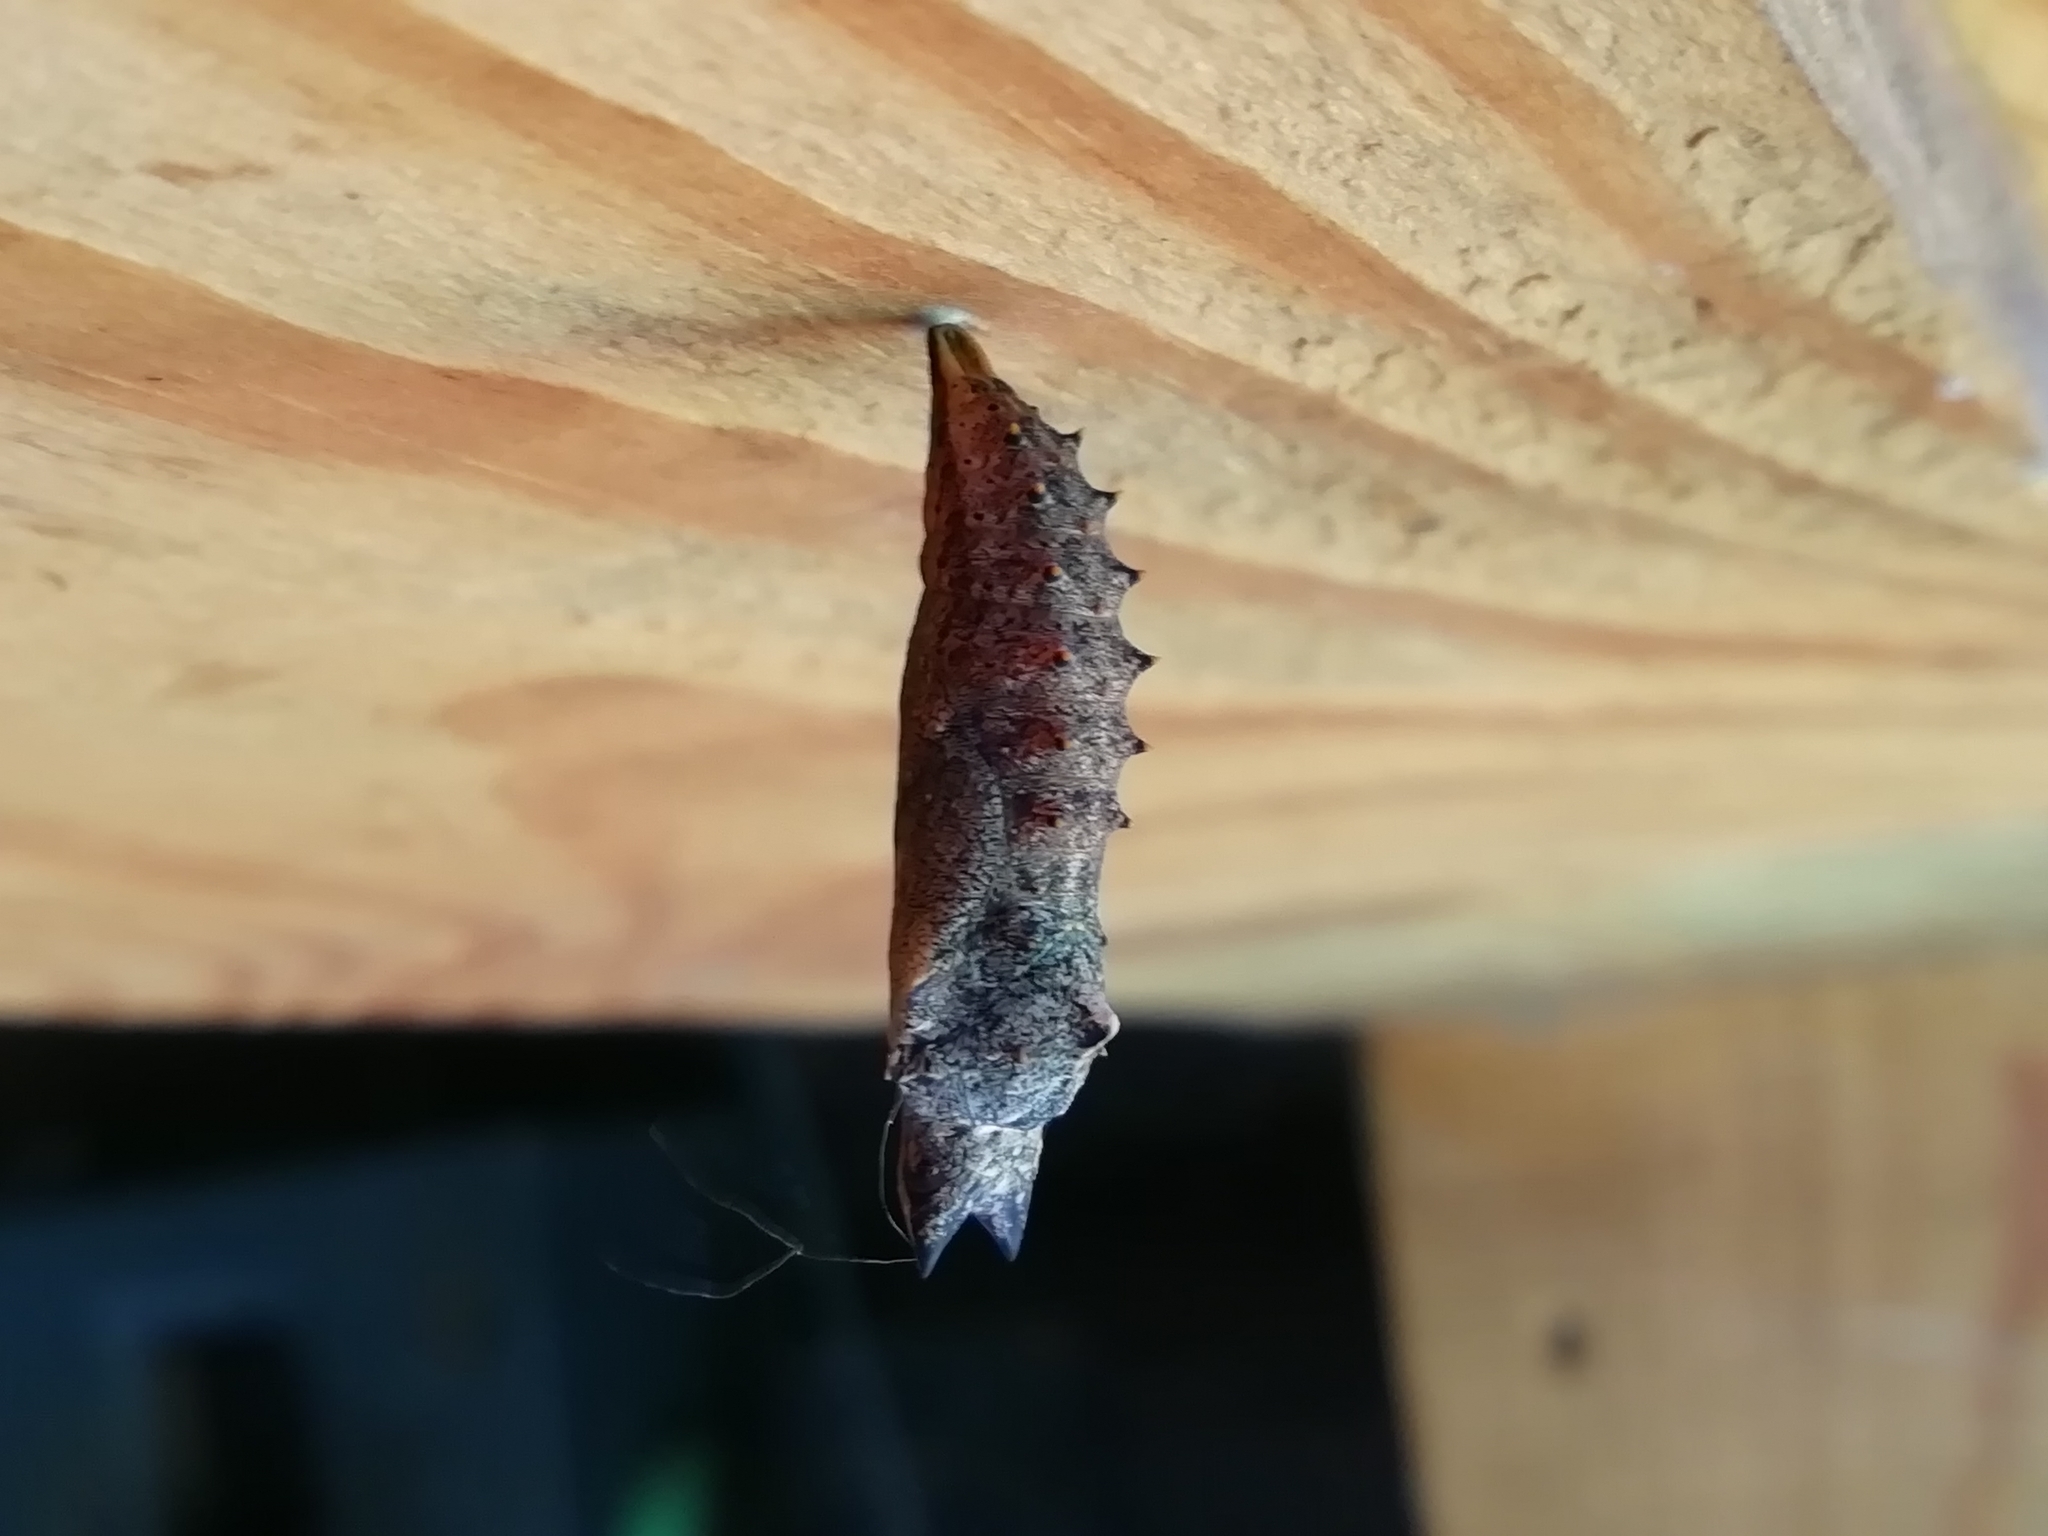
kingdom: Animalia
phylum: Arthropoda
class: Insecta
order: Lepidoptera
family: Nymphalidae
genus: Aglais
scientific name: Aglais io
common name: Peacock
